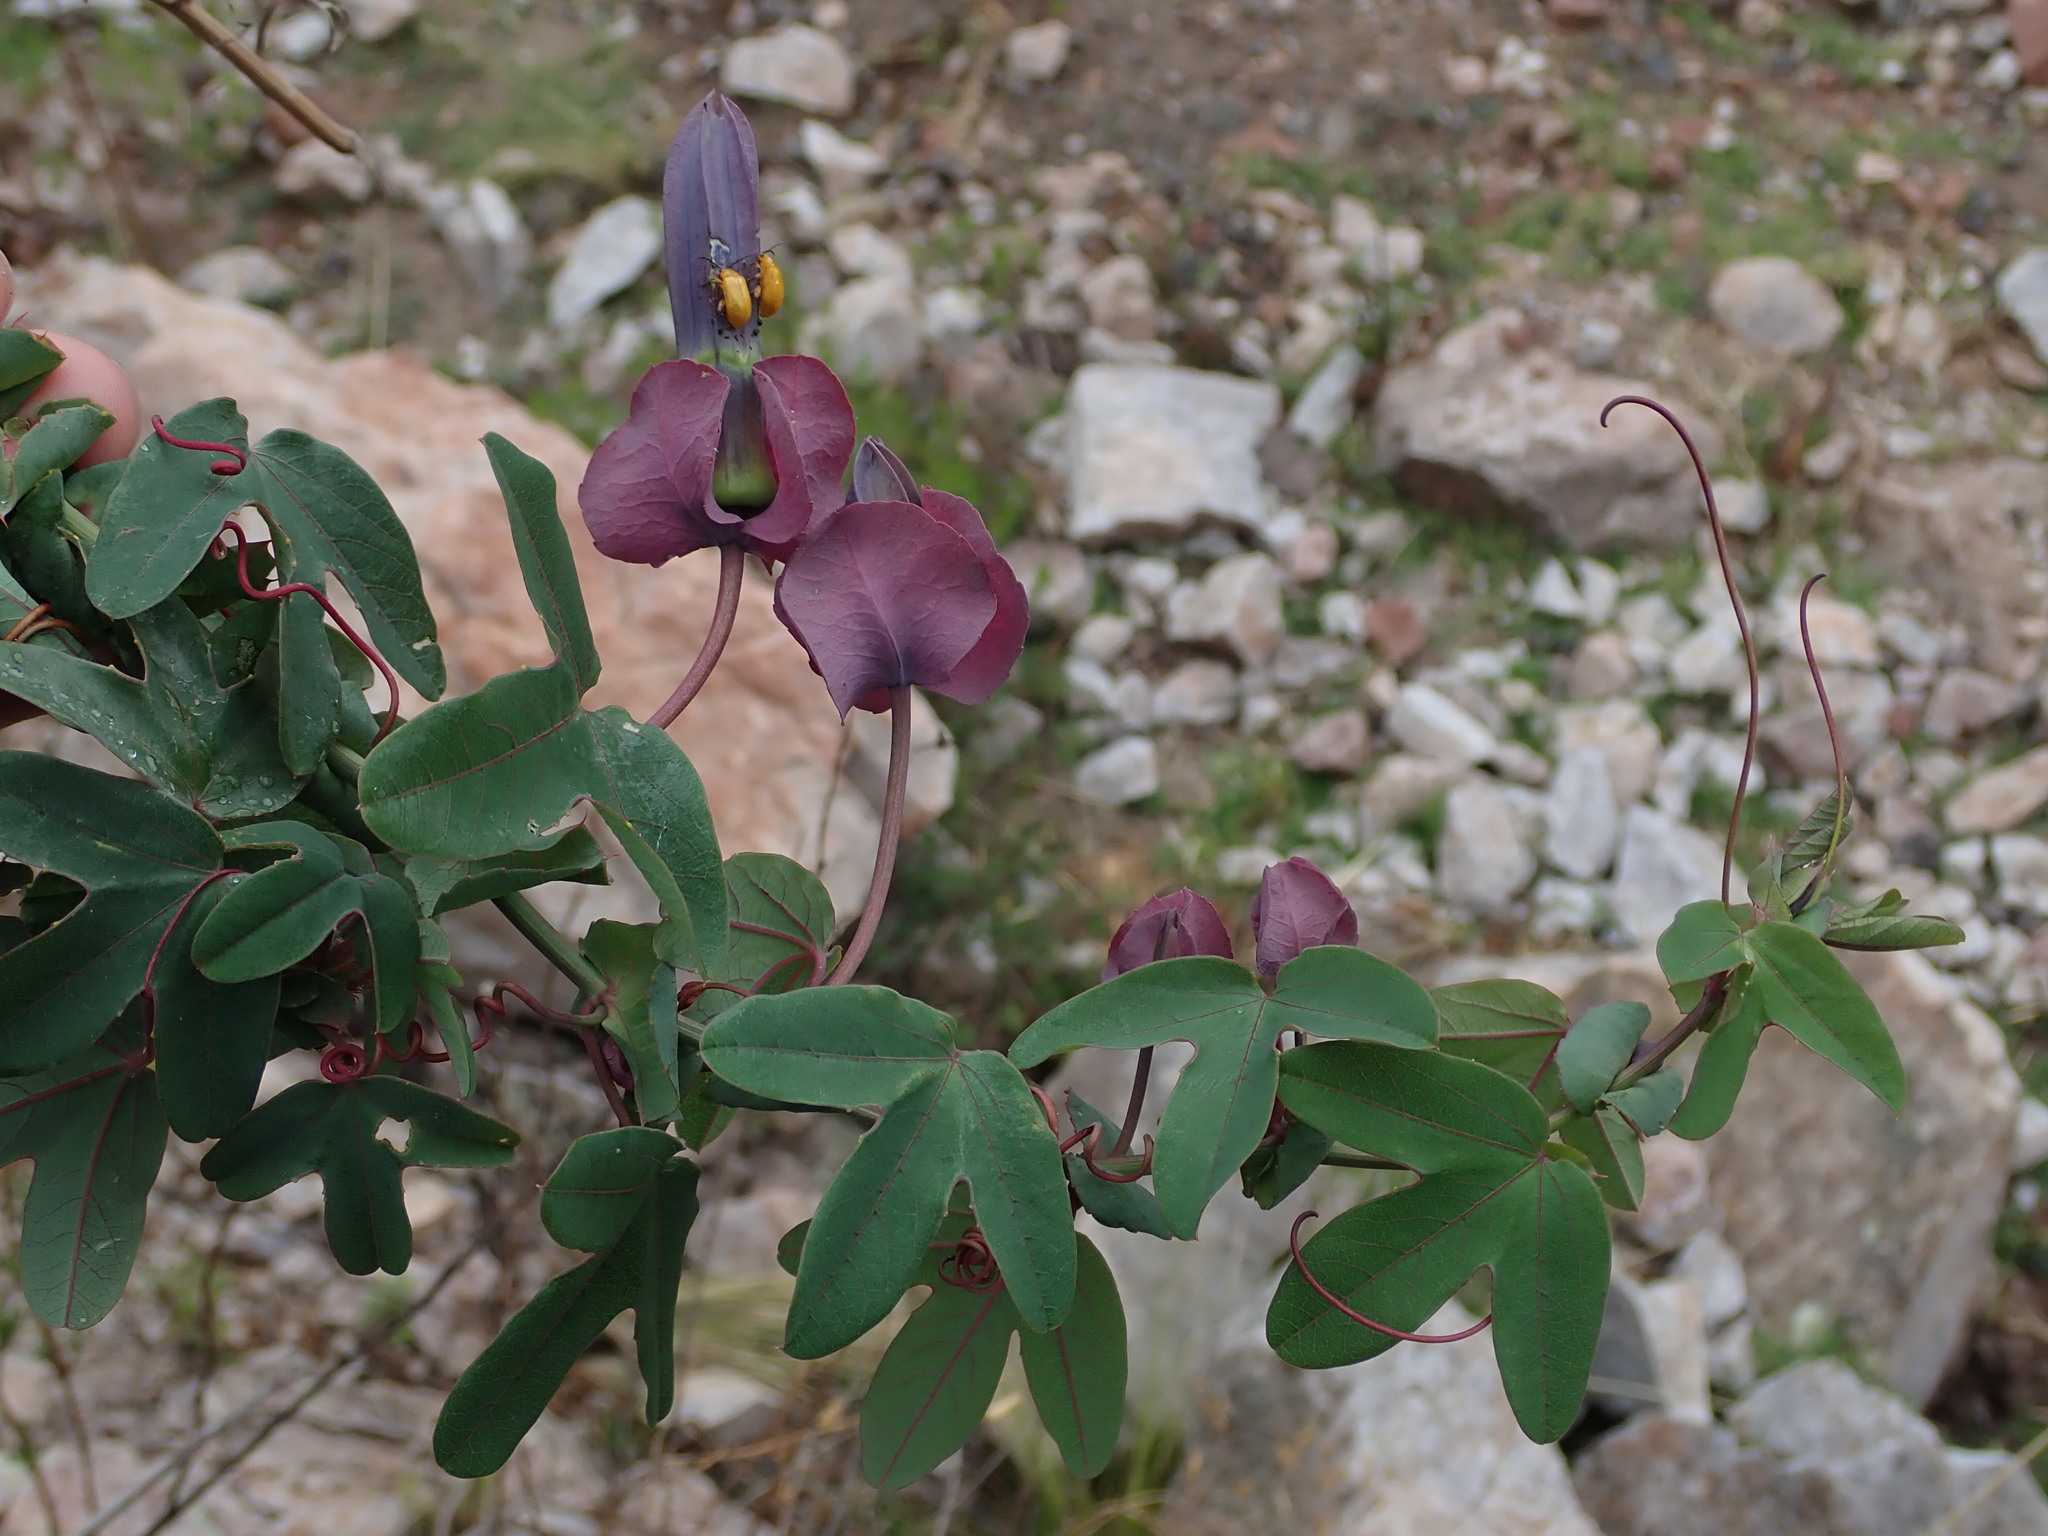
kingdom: Plantae
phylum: Tracheophyta
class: Magnoliopsida
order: Malpighiales
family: Passifloraceae
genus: Passiflora
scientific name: Passiflora umbilicata
